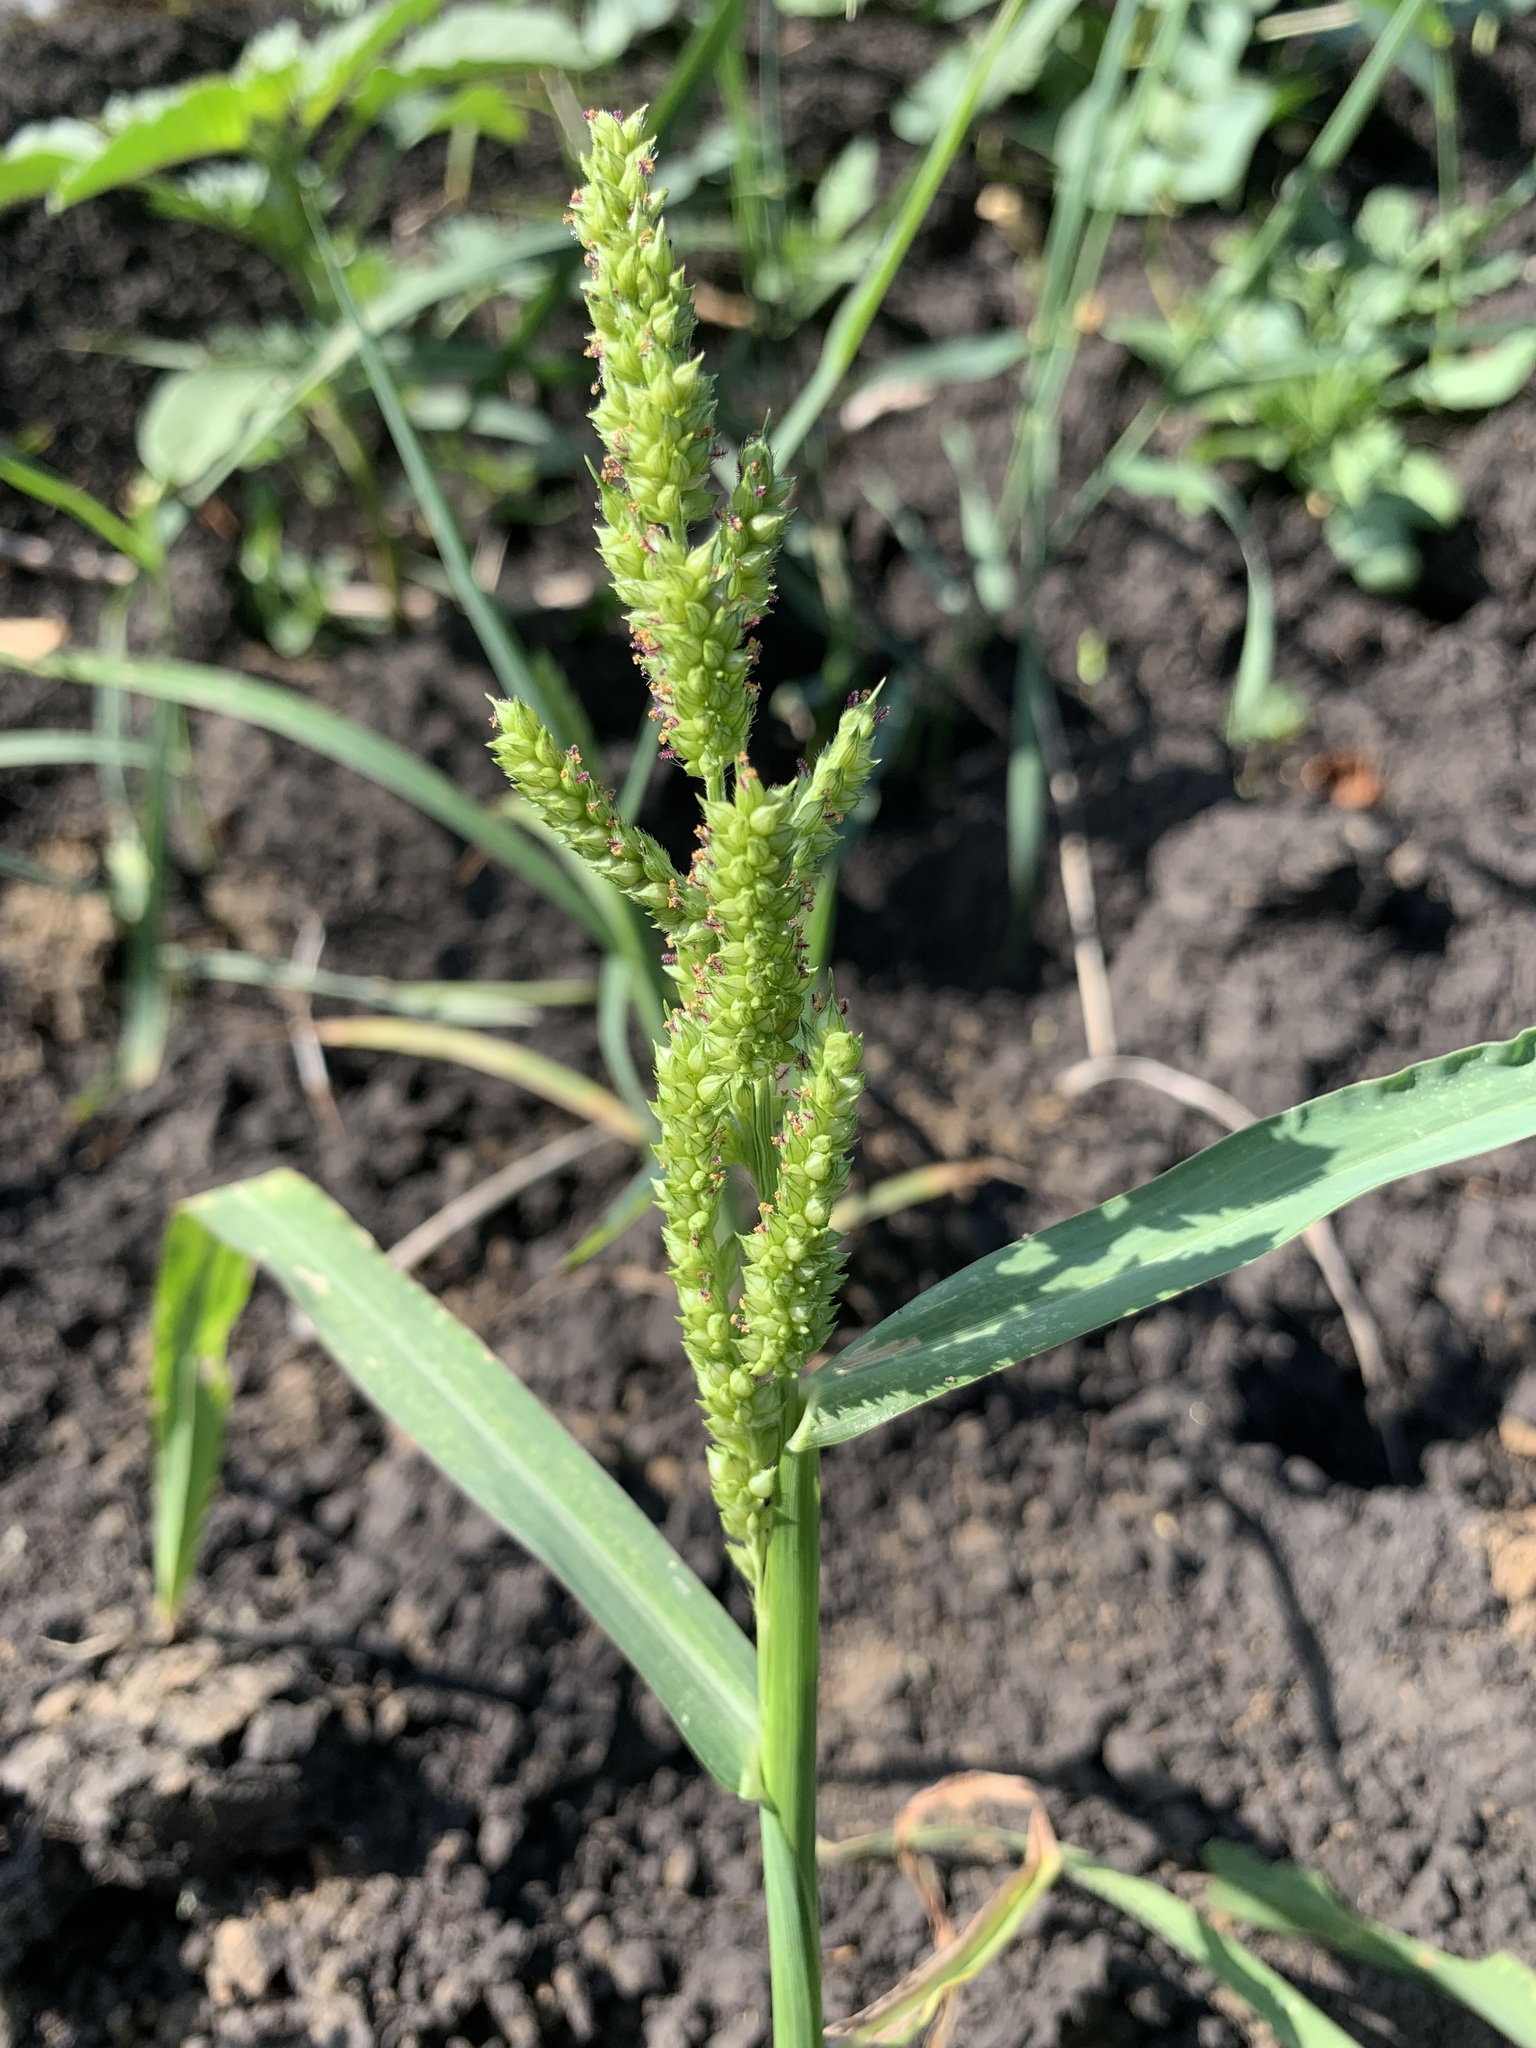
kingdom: Plantae
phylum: Tracheophyta
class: Liliopsida
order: Poales
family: Poaceae
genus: Echinochloa
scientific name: Echinochloa crus-galli
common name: Cockspur
